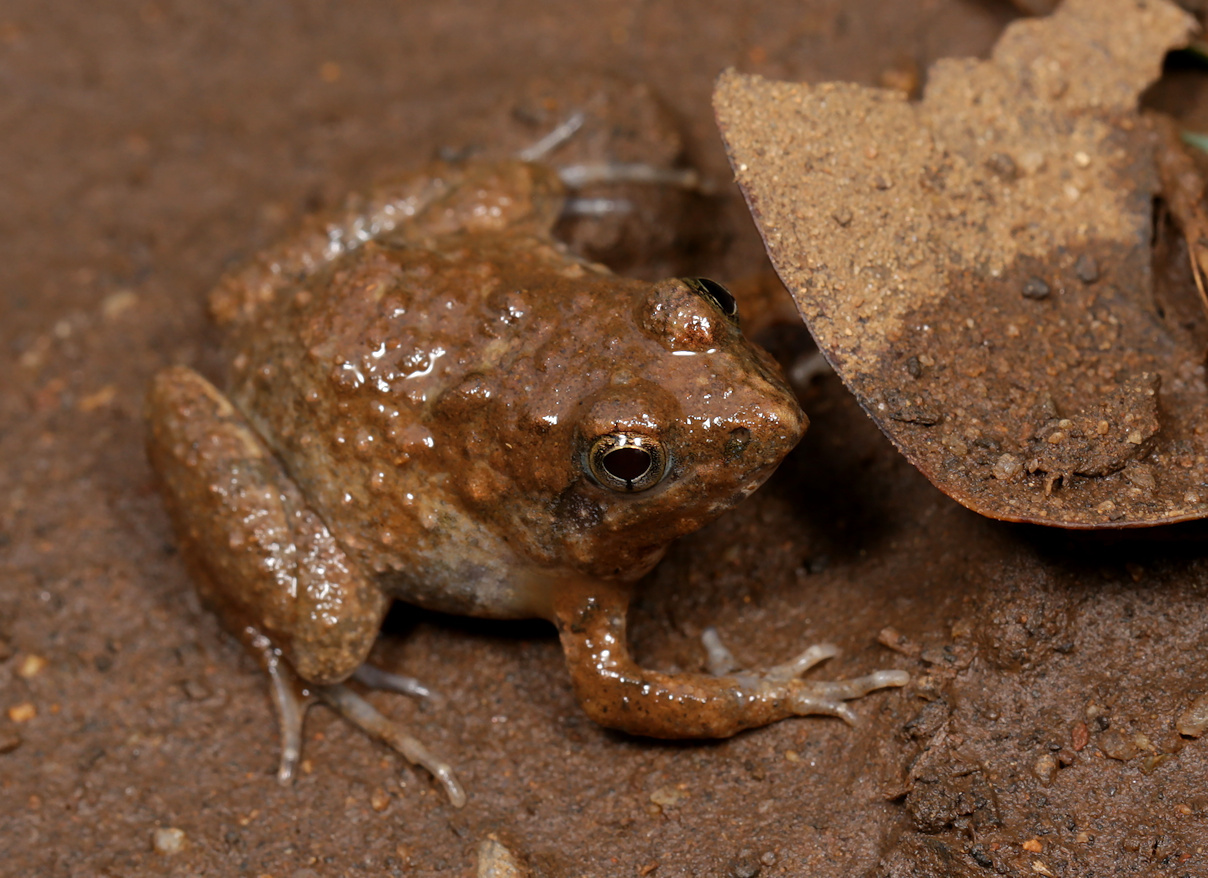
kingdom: Animalia
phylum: Chordata
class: Amphibia
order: Anura
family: Phrynobatrachidae
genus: Phrynobatrachus
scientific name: Phrynobatrachus natalensis
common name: Snoring puddle frog
